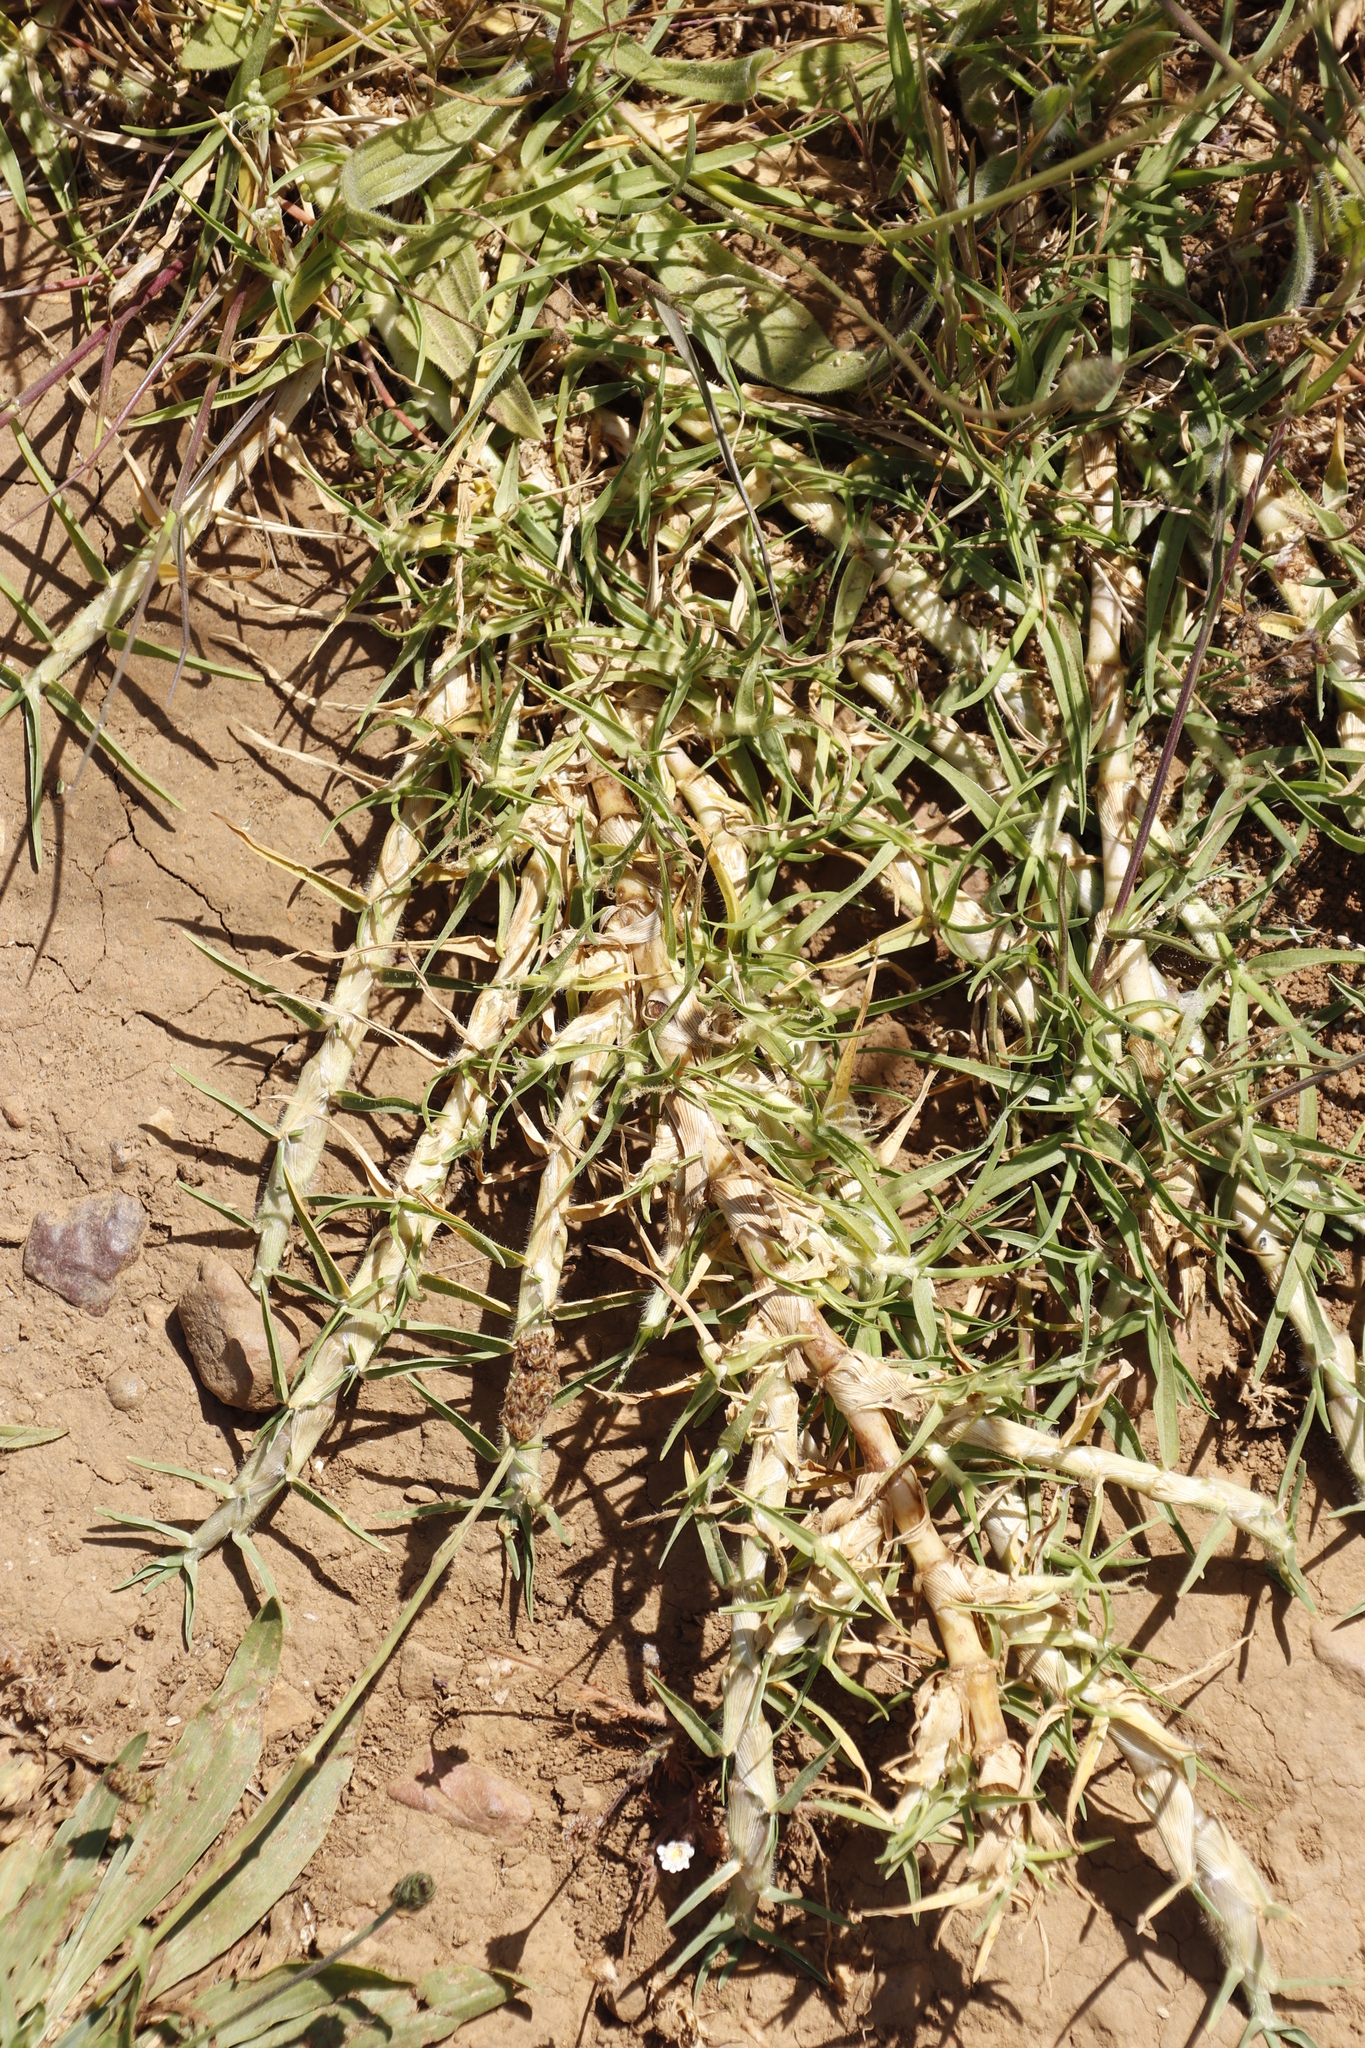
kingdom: Plantae
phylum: Tracheophyta
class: Liliopsida
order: Poales
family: Poaceae
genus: Cenchrus
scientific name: Cenchrus clandestinus
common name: Kikuyugrass
